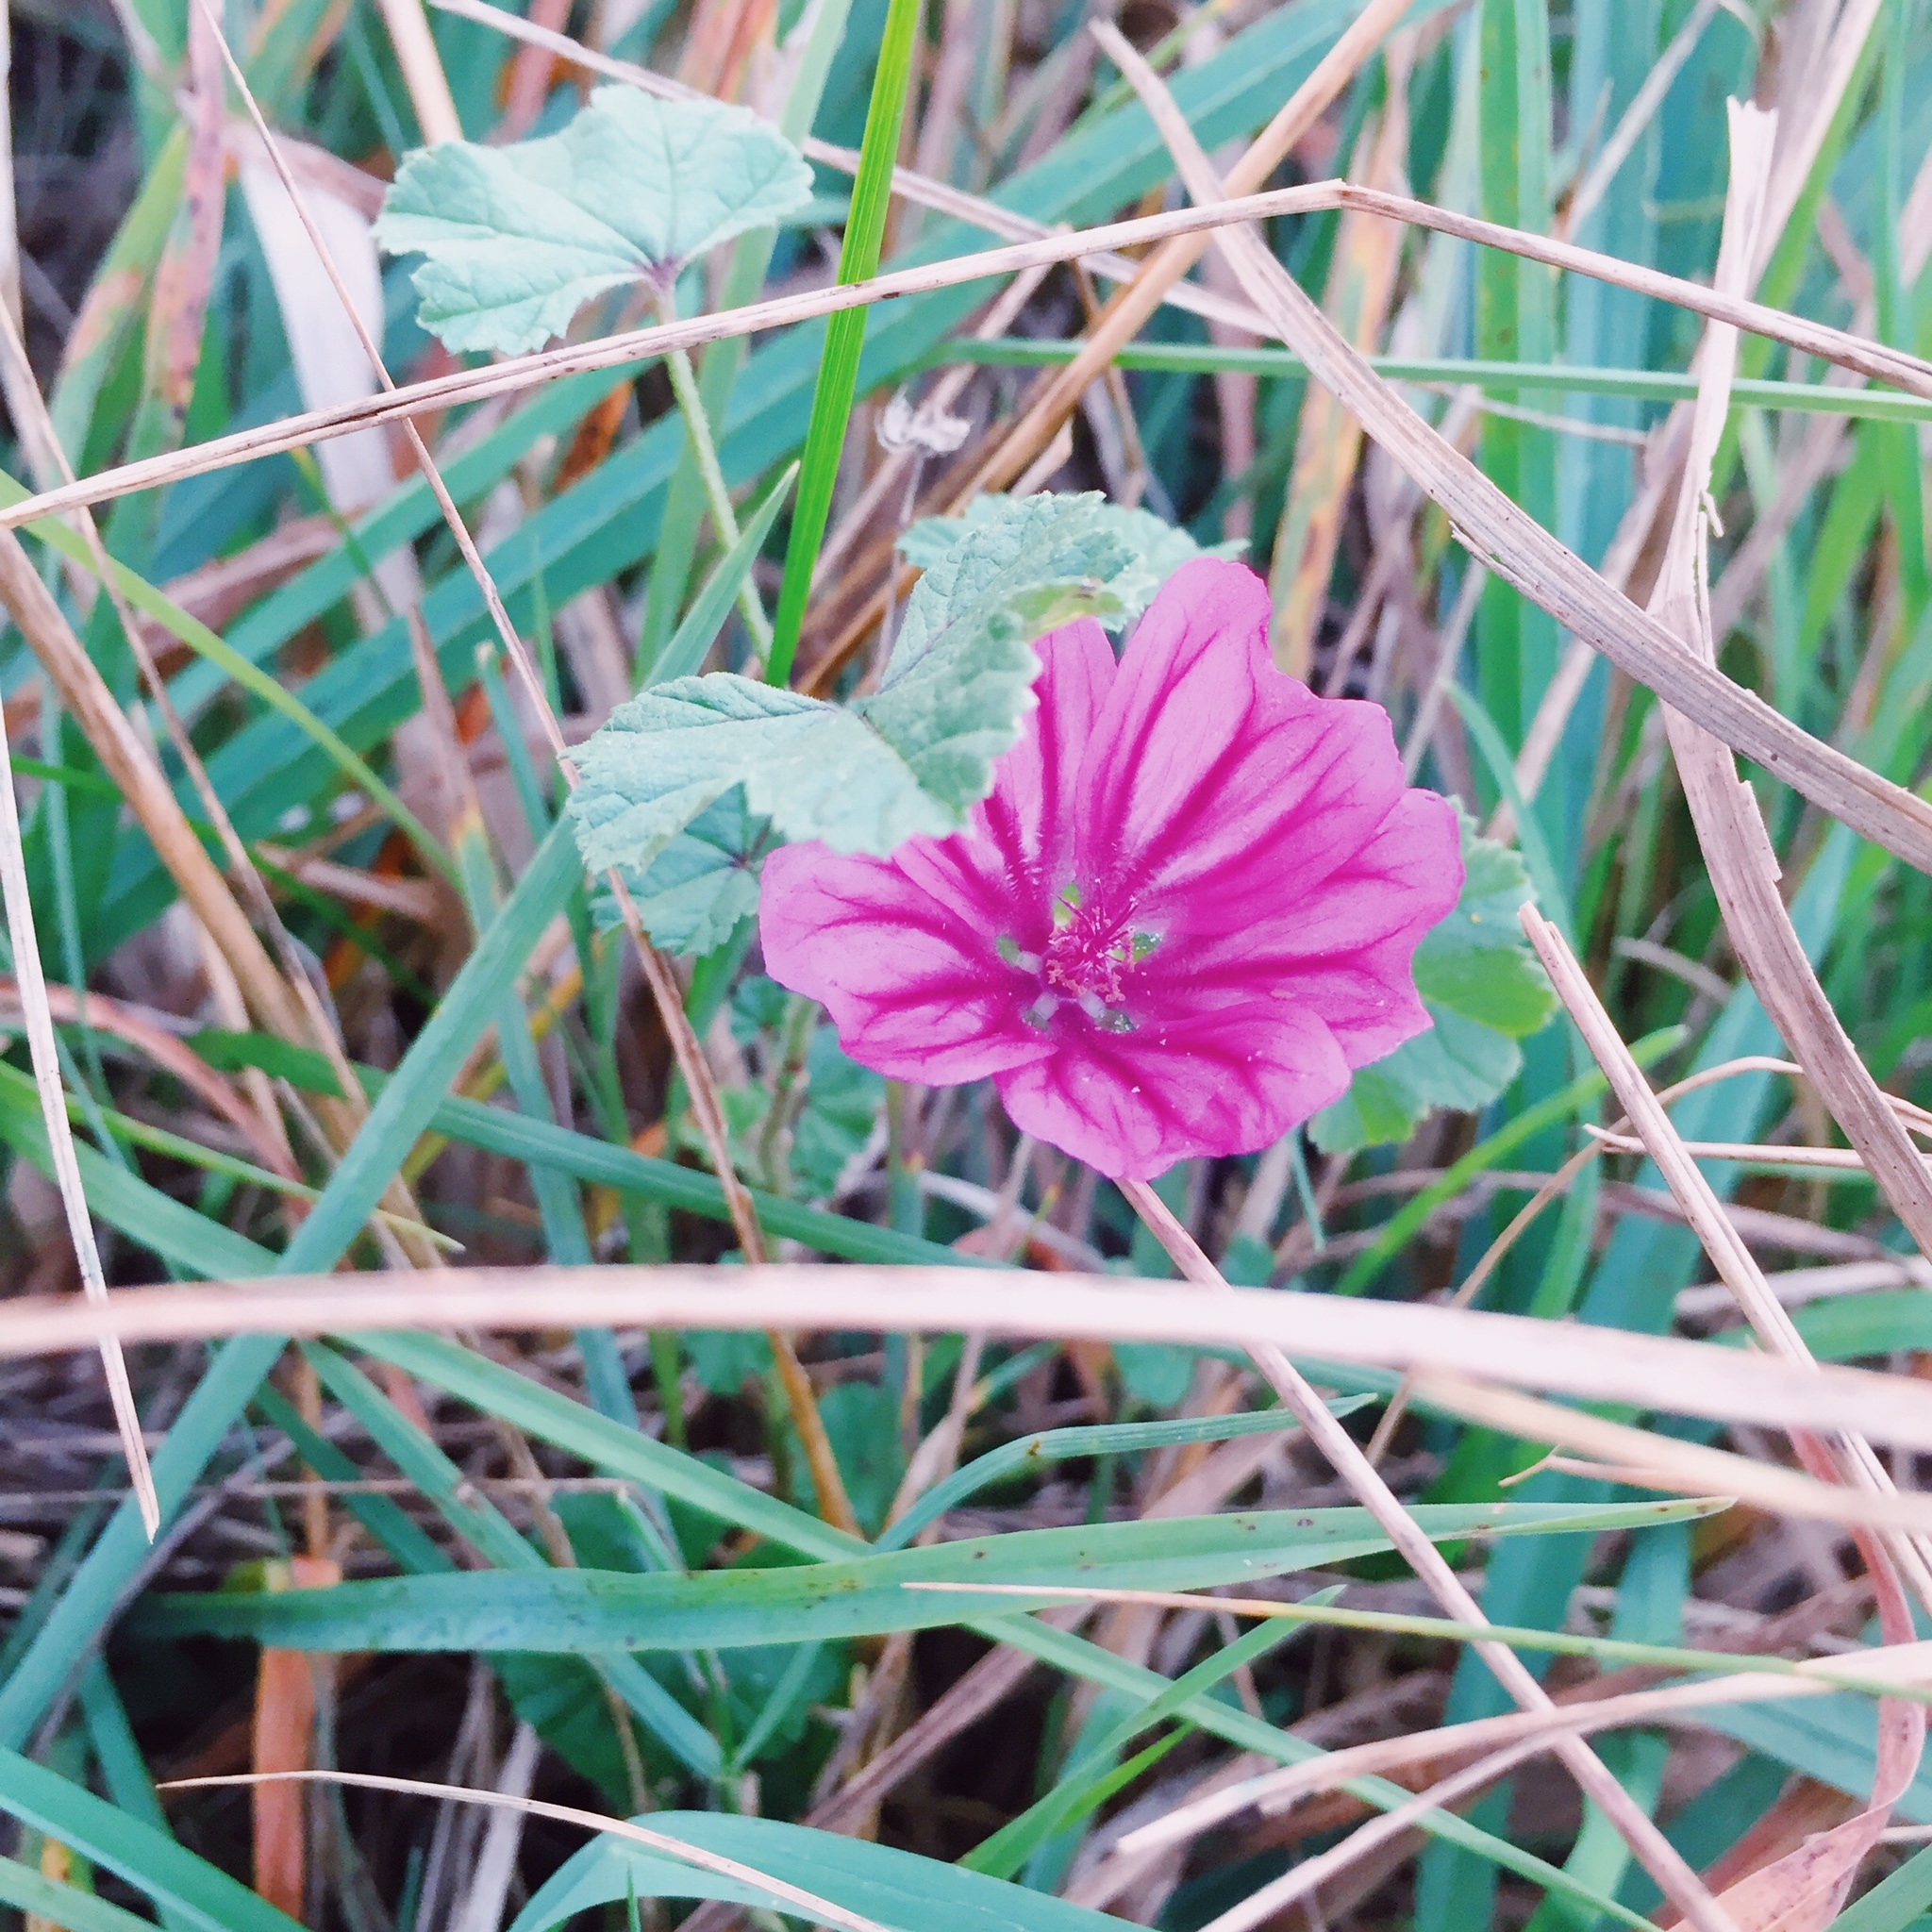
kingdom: Plantae
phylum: Tracheophyta
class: Magnoliopsida
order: Malvales
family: Malvaceae
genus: Malva
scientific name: Malva sylvestris
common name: Common mallow
